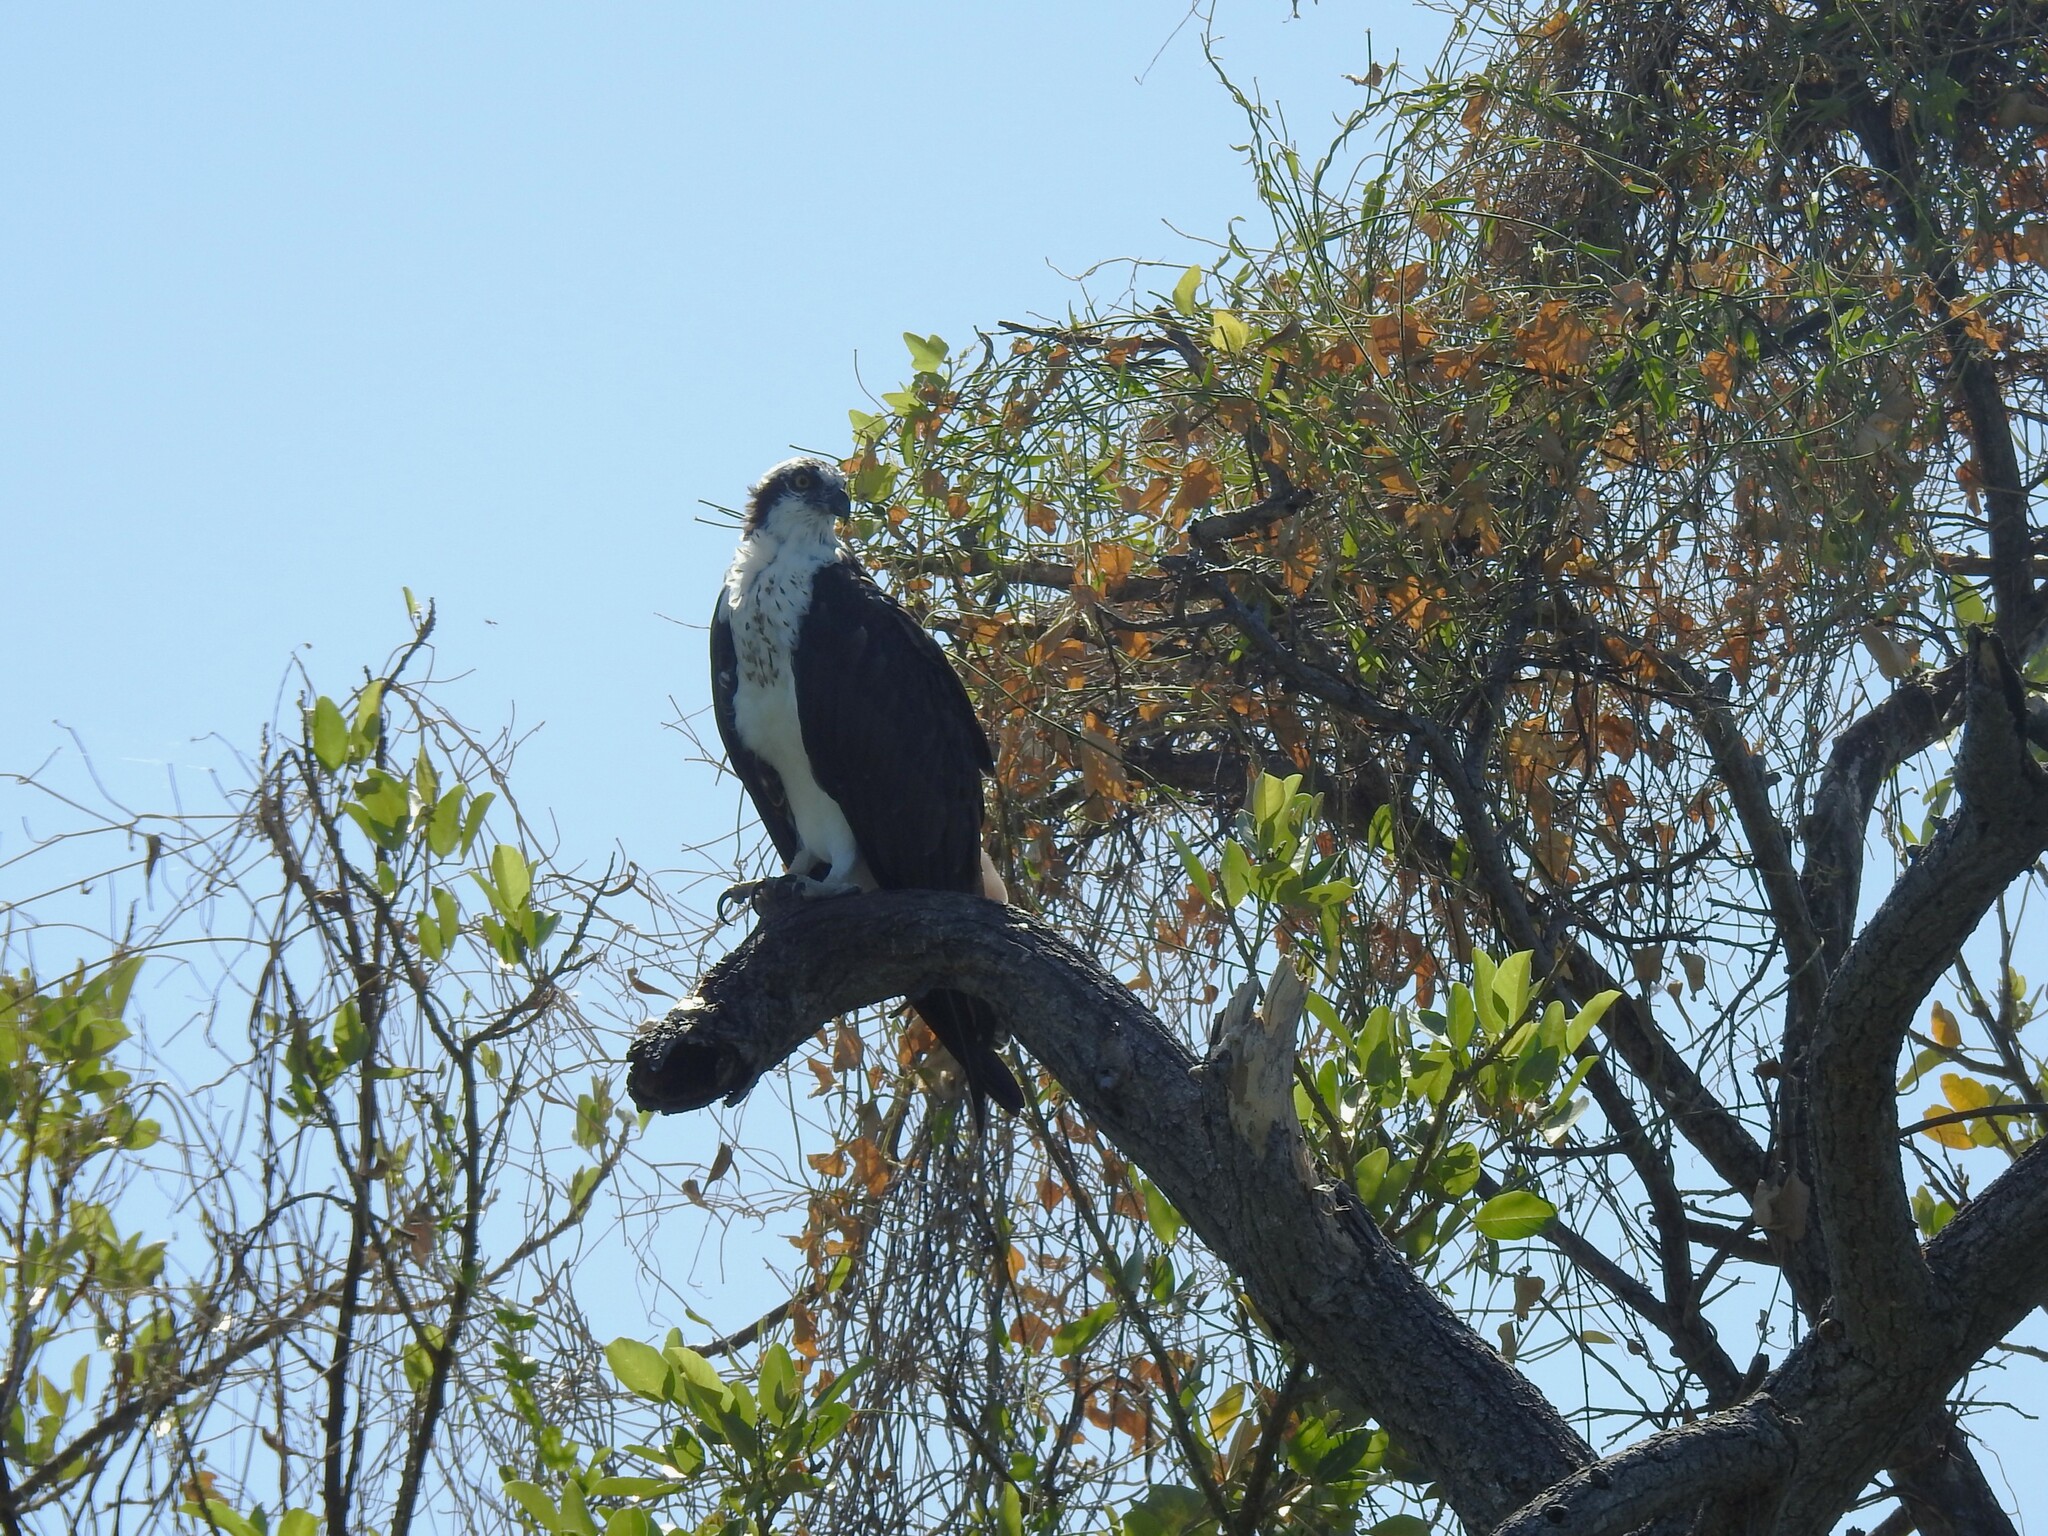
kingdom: Animalia
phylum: Chordata
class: Aves
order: Accipitriformes
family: Pandionidae
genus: Pandion
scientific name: Pandion haliaetus
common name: Osprey
